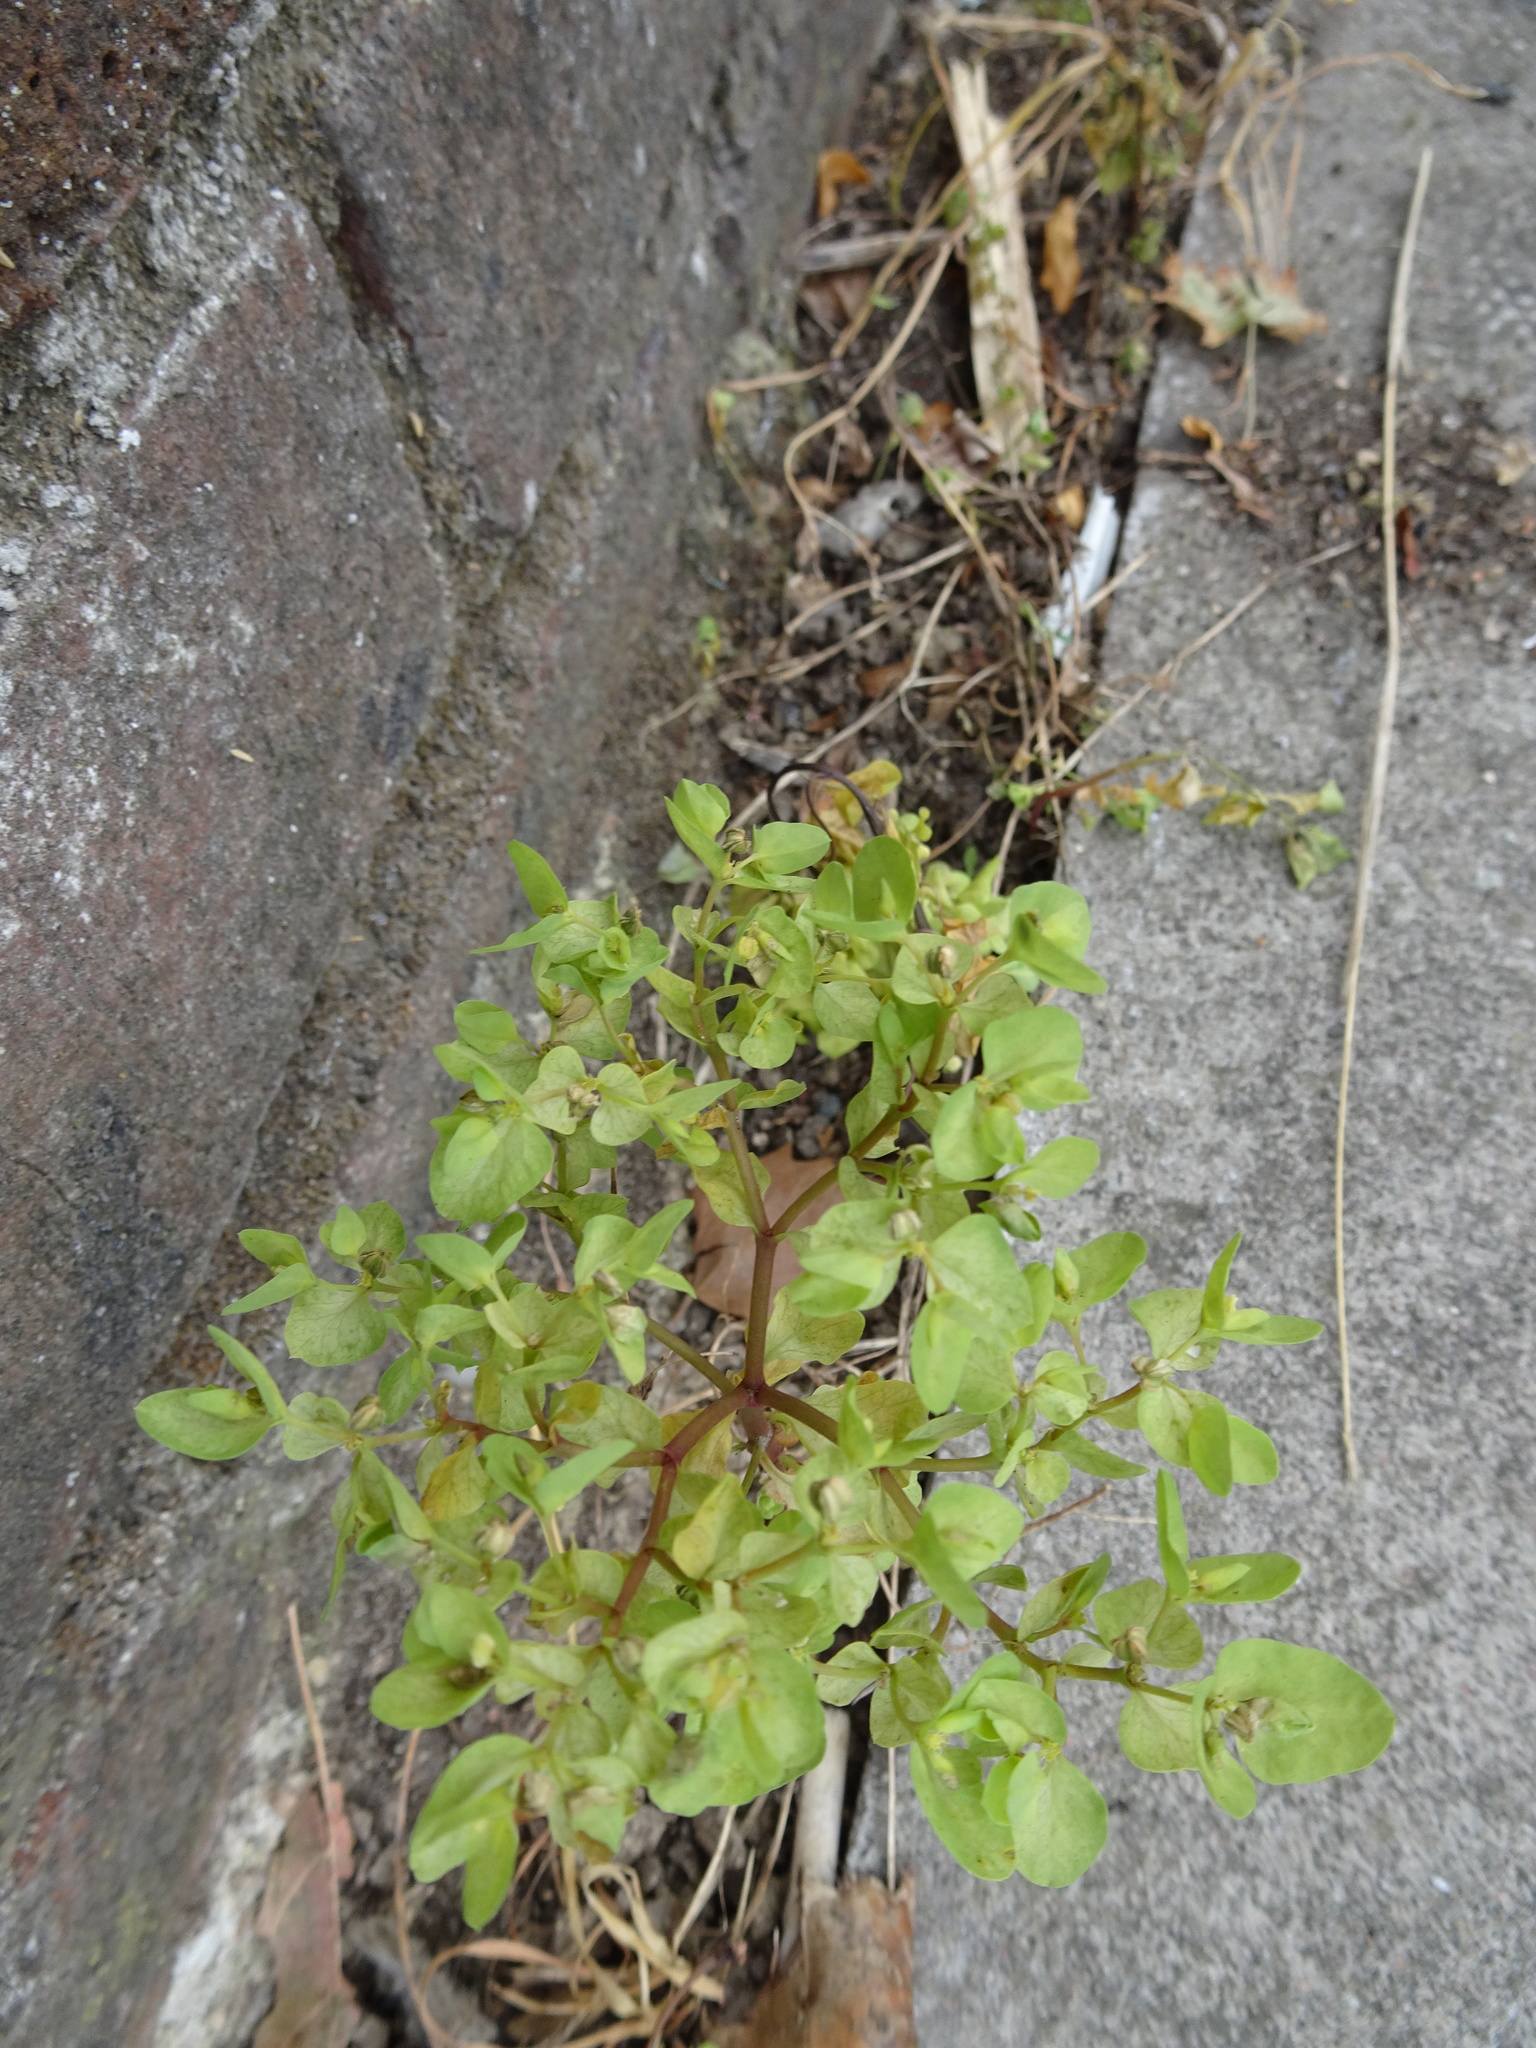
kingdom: Plantae
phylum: Tracheophyta
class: Magnoliopsida
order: Malpighiales
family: Euphorbiaceae
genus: Euphorbia
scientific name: Euphorbia peplus
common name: Petty spurge
